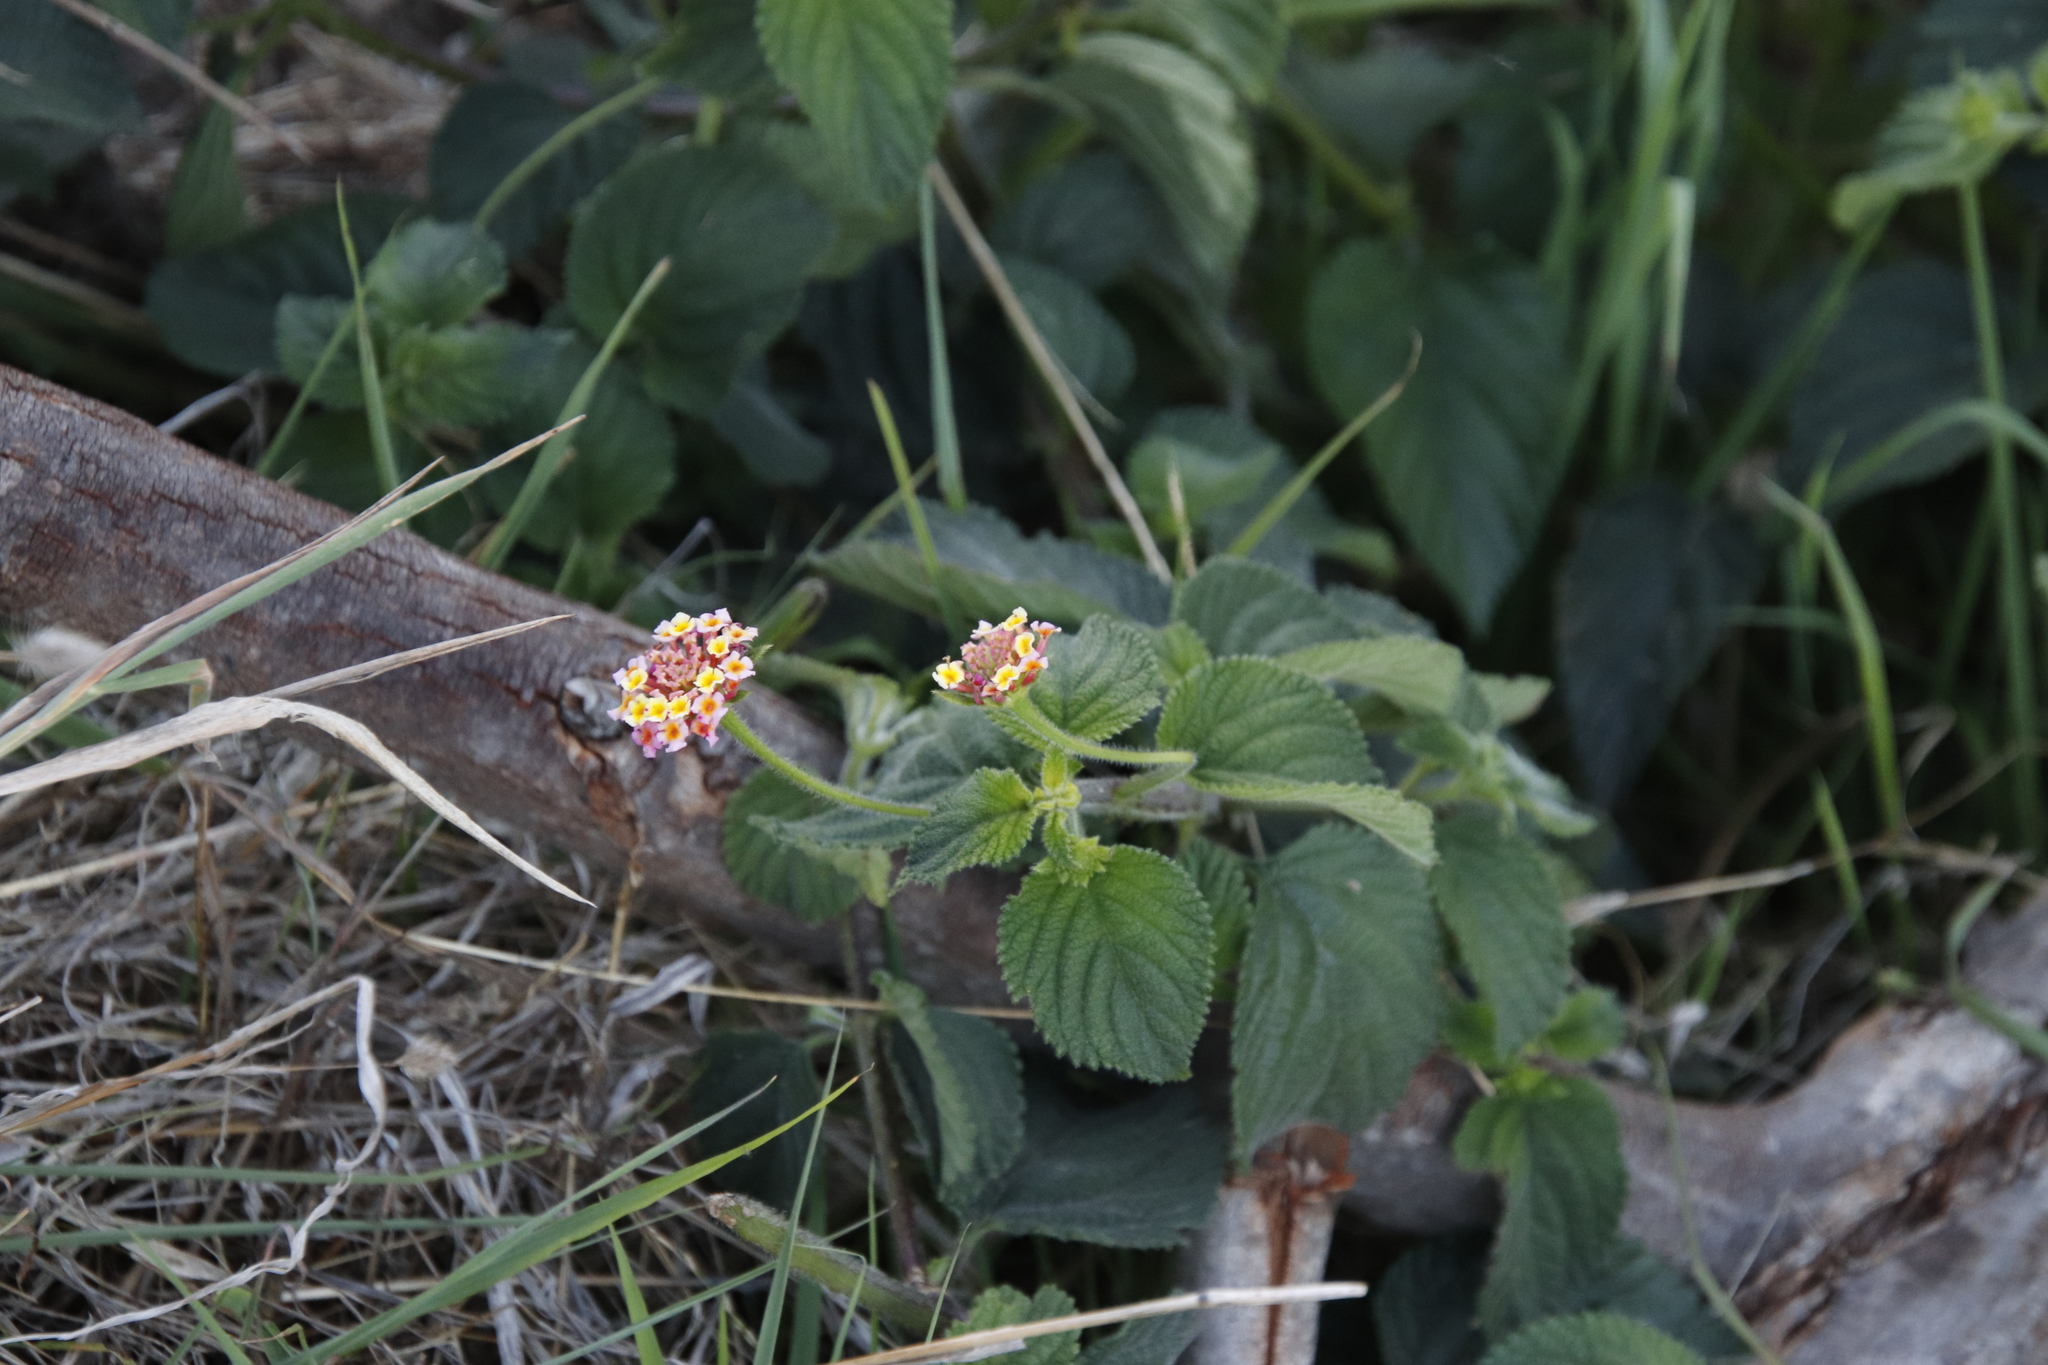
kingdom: Plantae
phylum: Tracheophyta
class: Magnoliopsida
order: Lamiales
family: Verbenaceae
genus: Lantana
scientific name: Lantana camara
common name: Lantana
